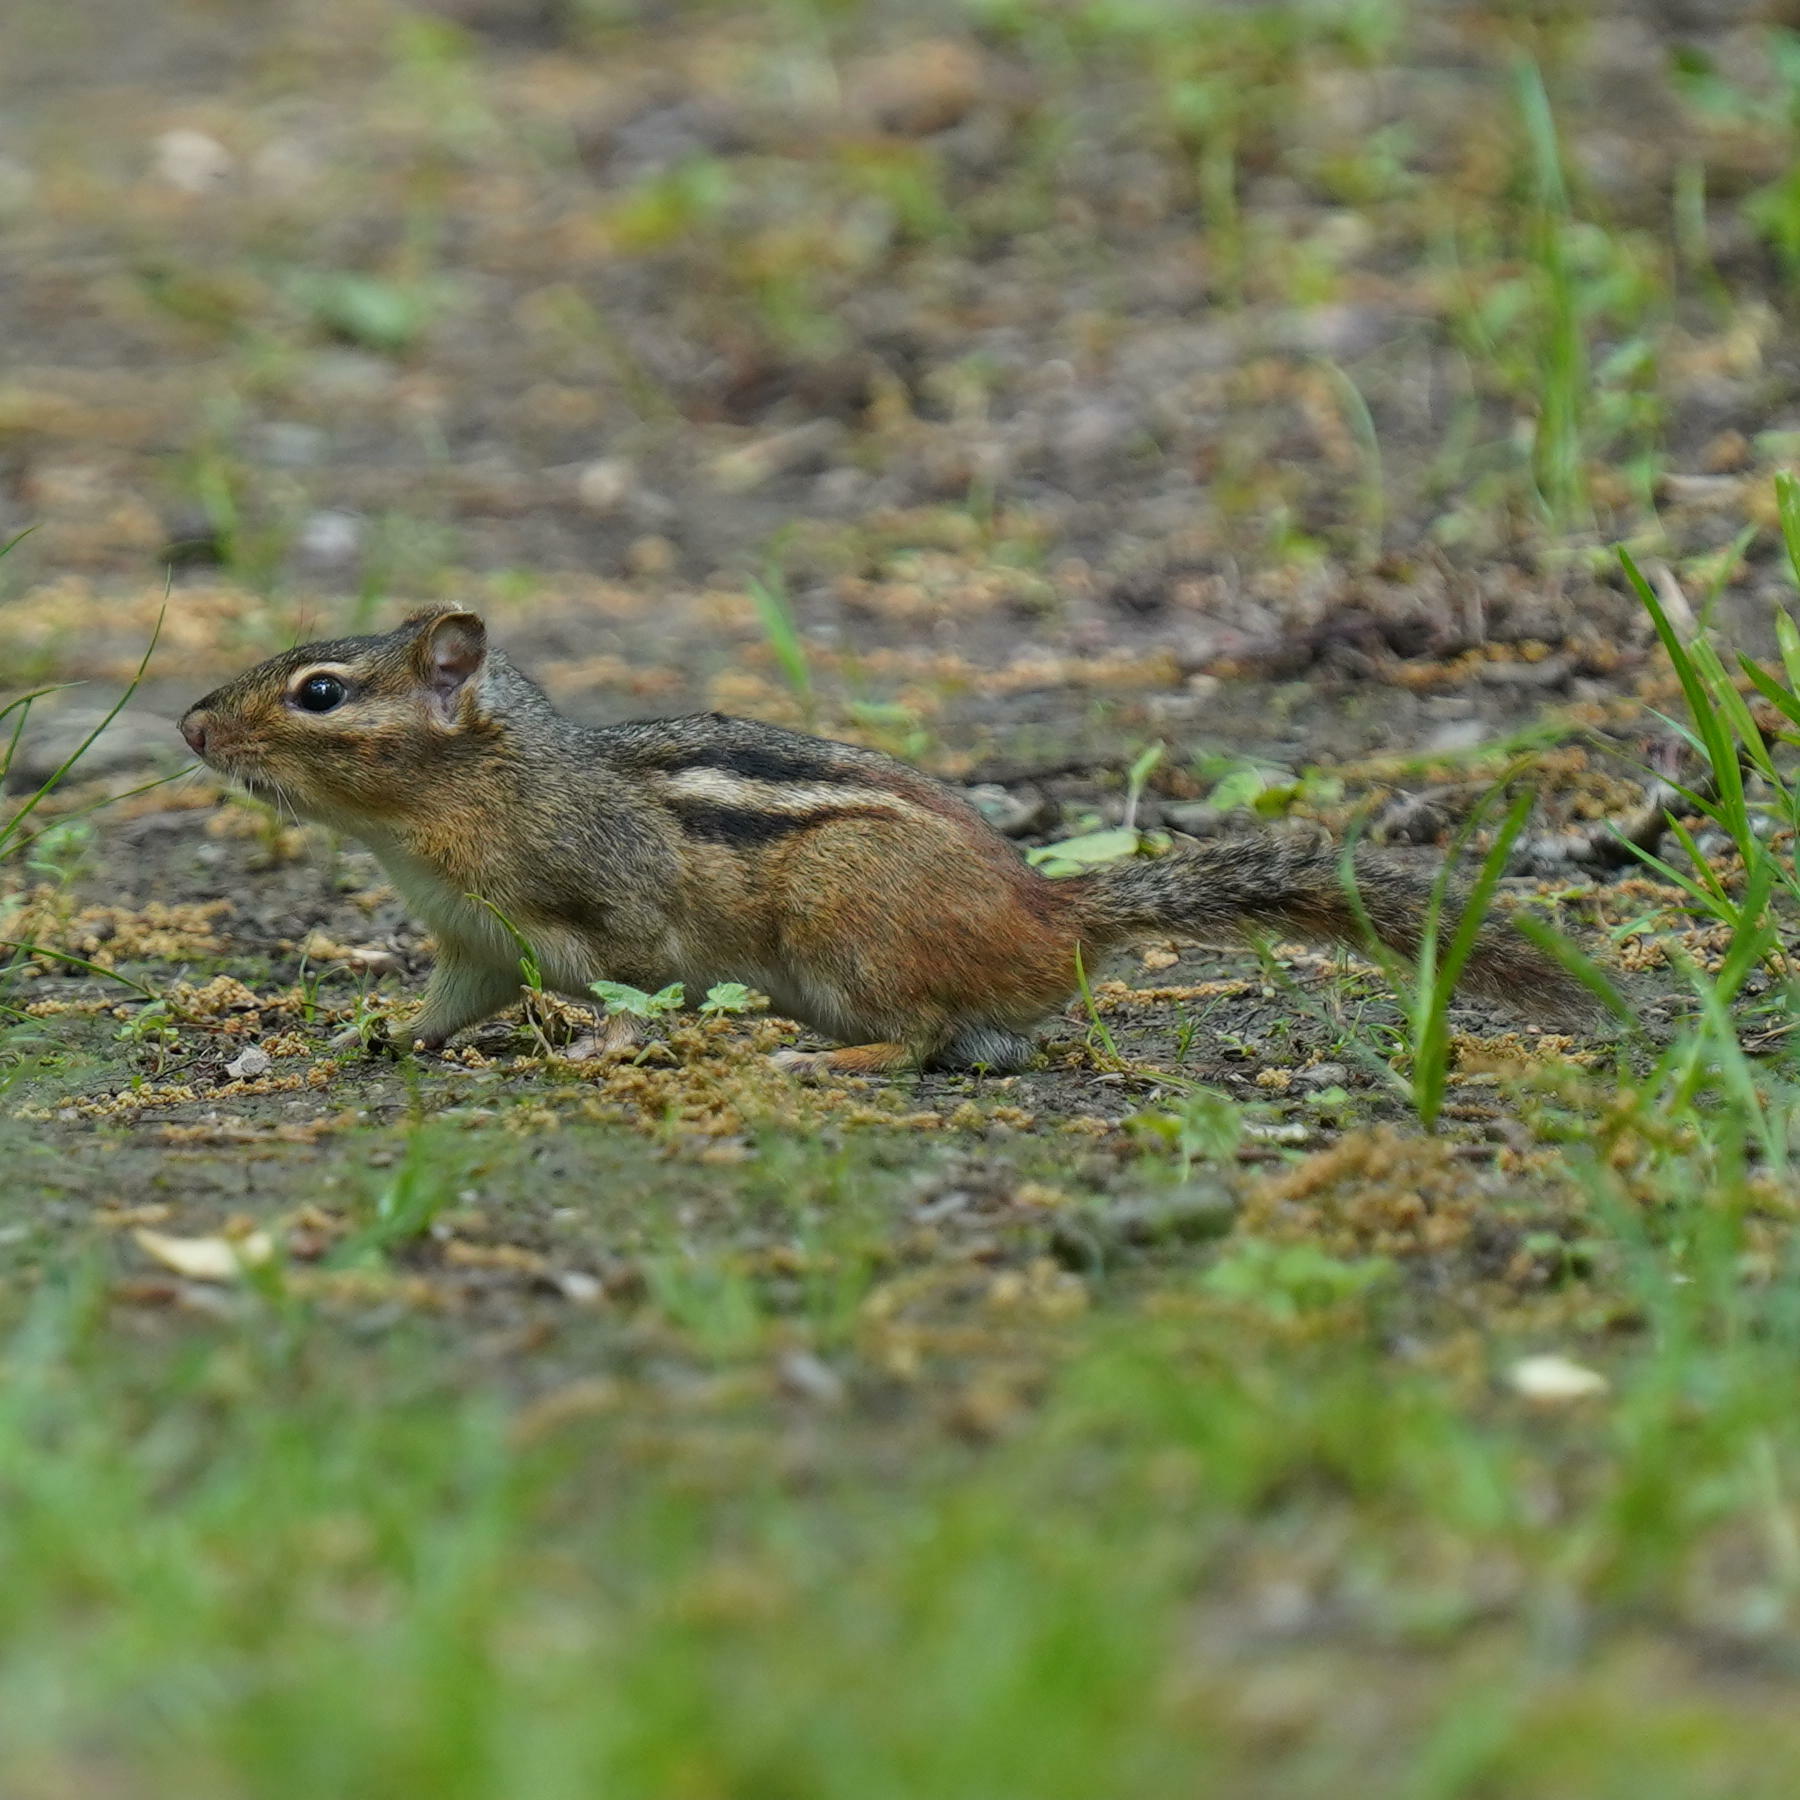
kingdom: Animalia
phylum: Chordata
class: Mammalia
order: Rodentia
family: Sciuridae
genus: Tamias
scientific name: Tamias striatus
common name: Eastern chipmunk
